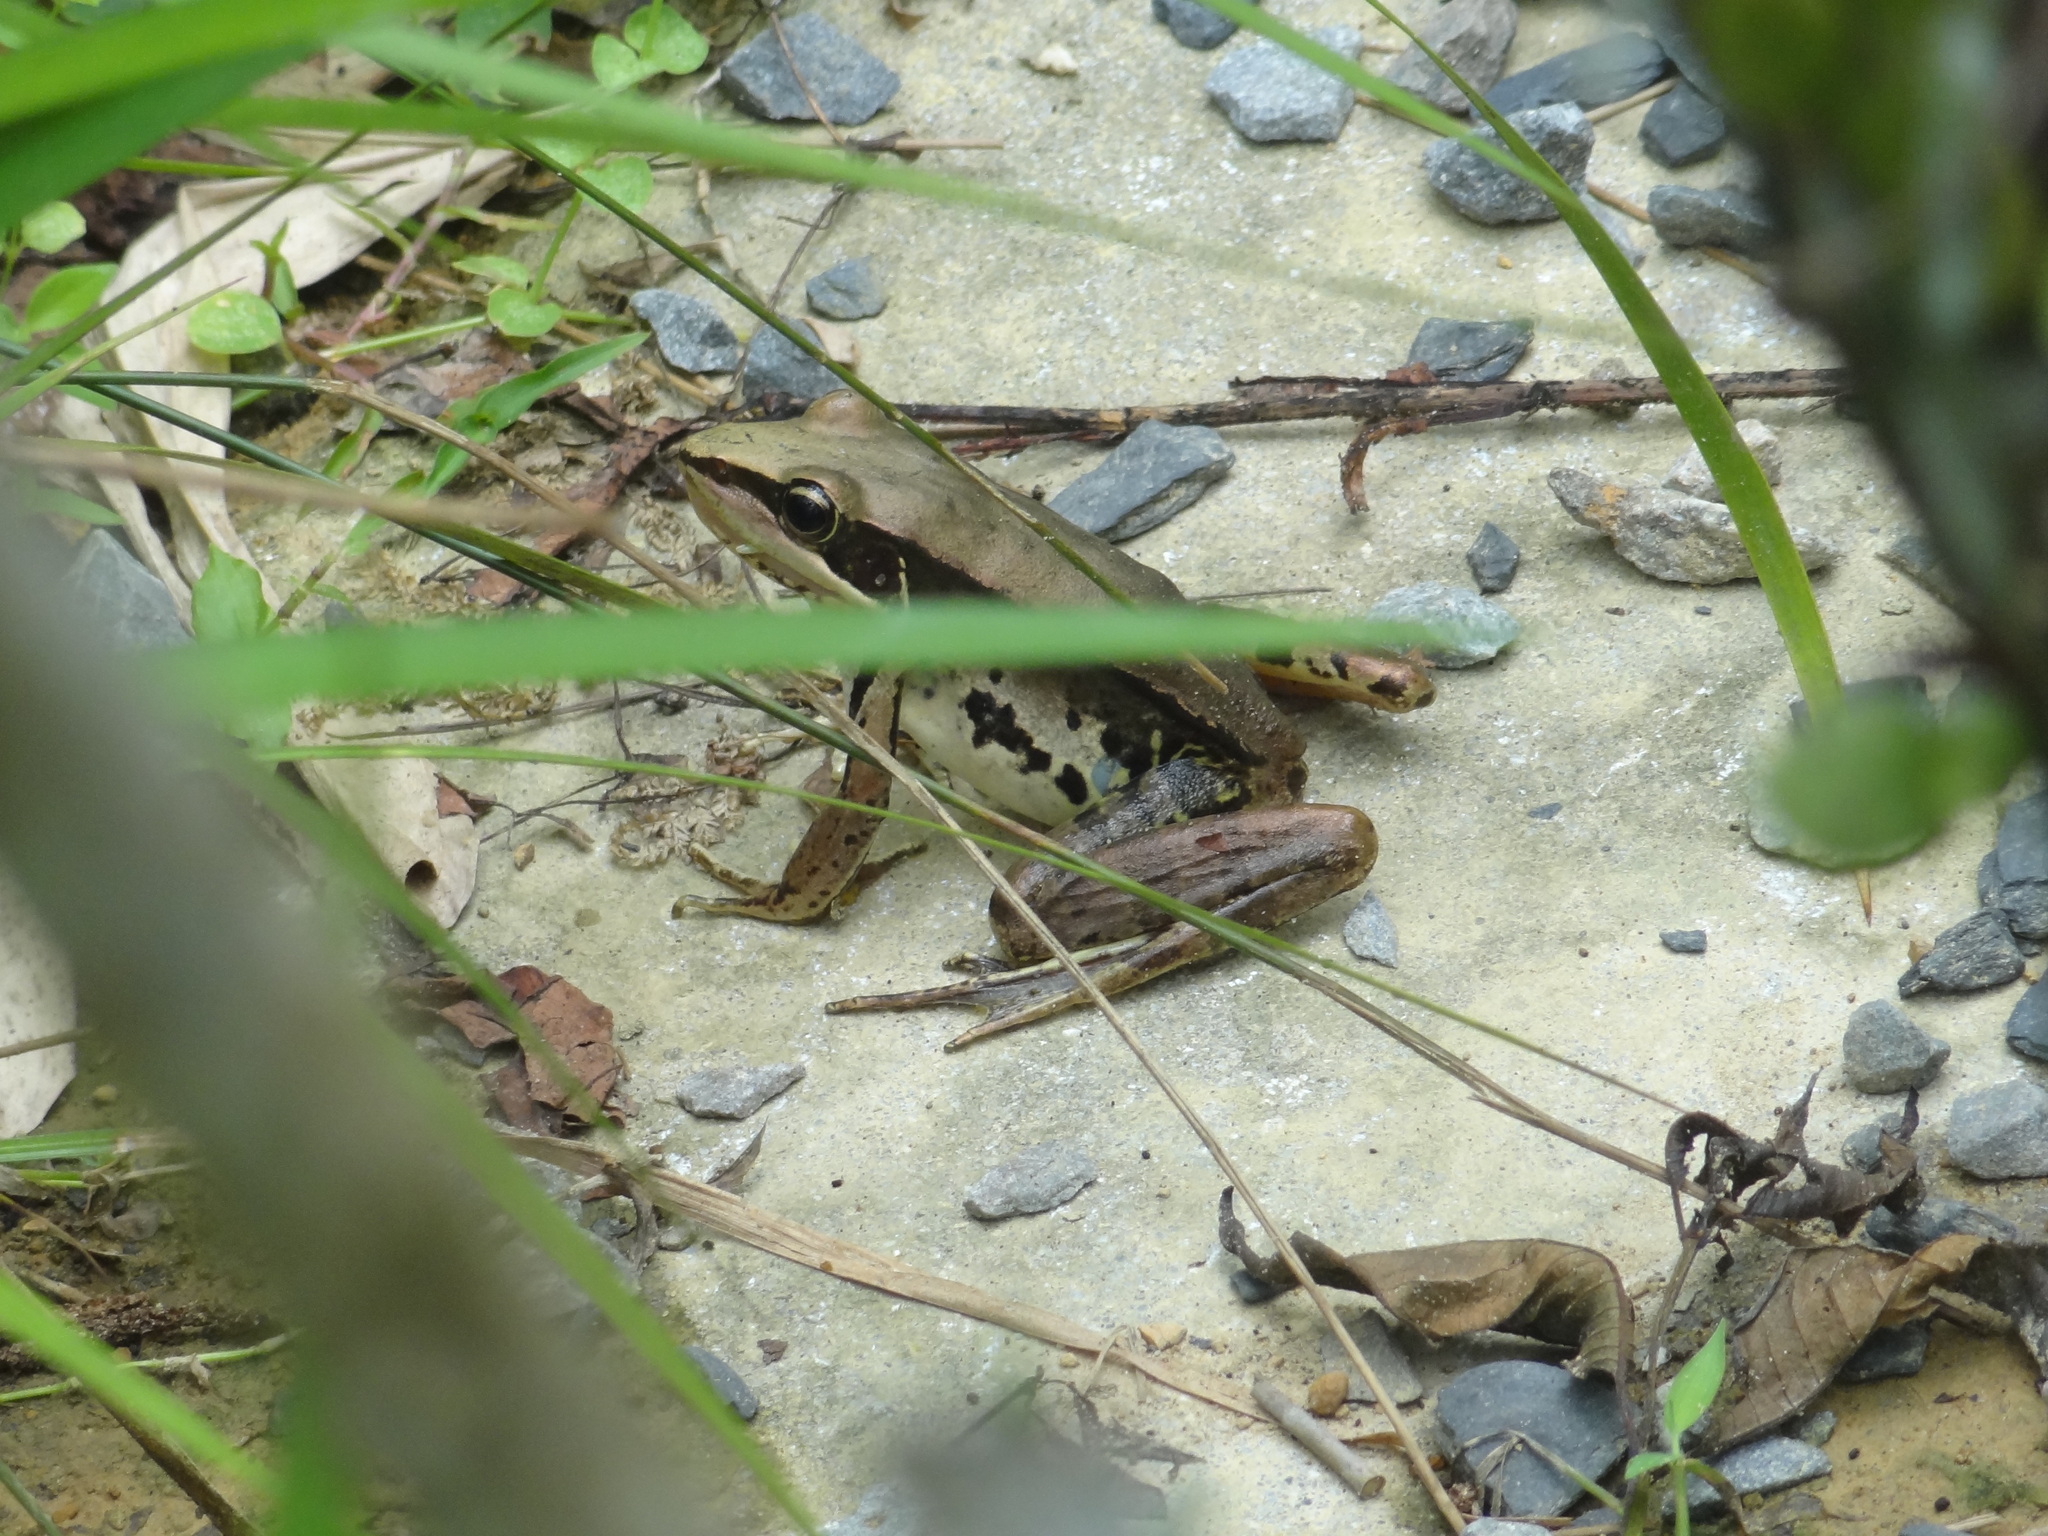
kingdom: Animalia
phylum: Chordata
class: Amphibia
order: Anura
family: Ranidae
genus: Sylvirana
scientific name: Sylvirana guentheri
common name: Guenther's amoy frog
